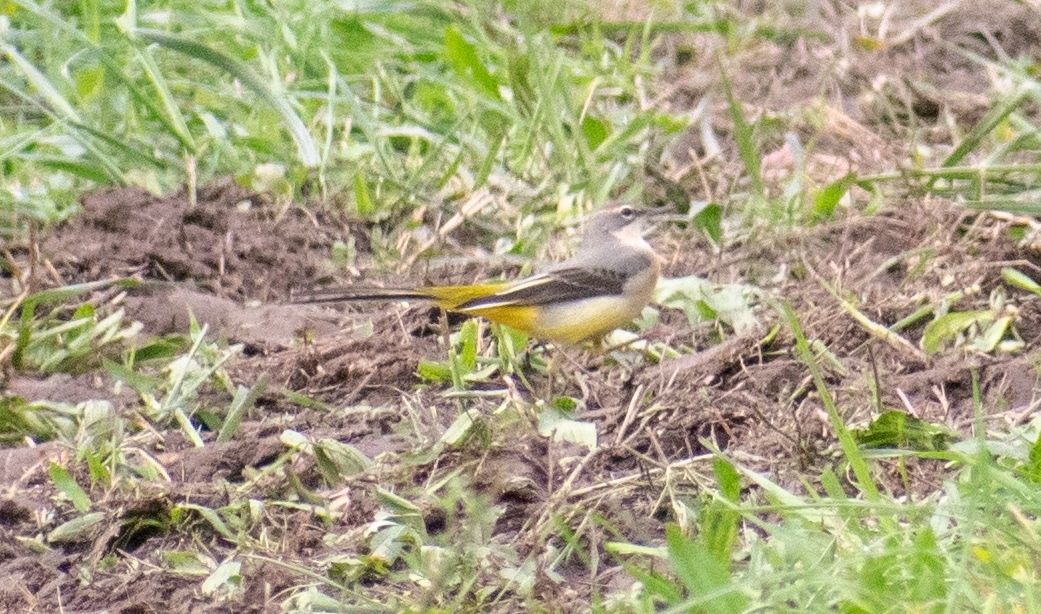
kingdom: Animalia
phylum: Chordata
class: Aves
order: Passeriformes
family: Motacillidae
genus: Motacilla
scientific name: Motacilla cinerea
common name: Grey wagtail
